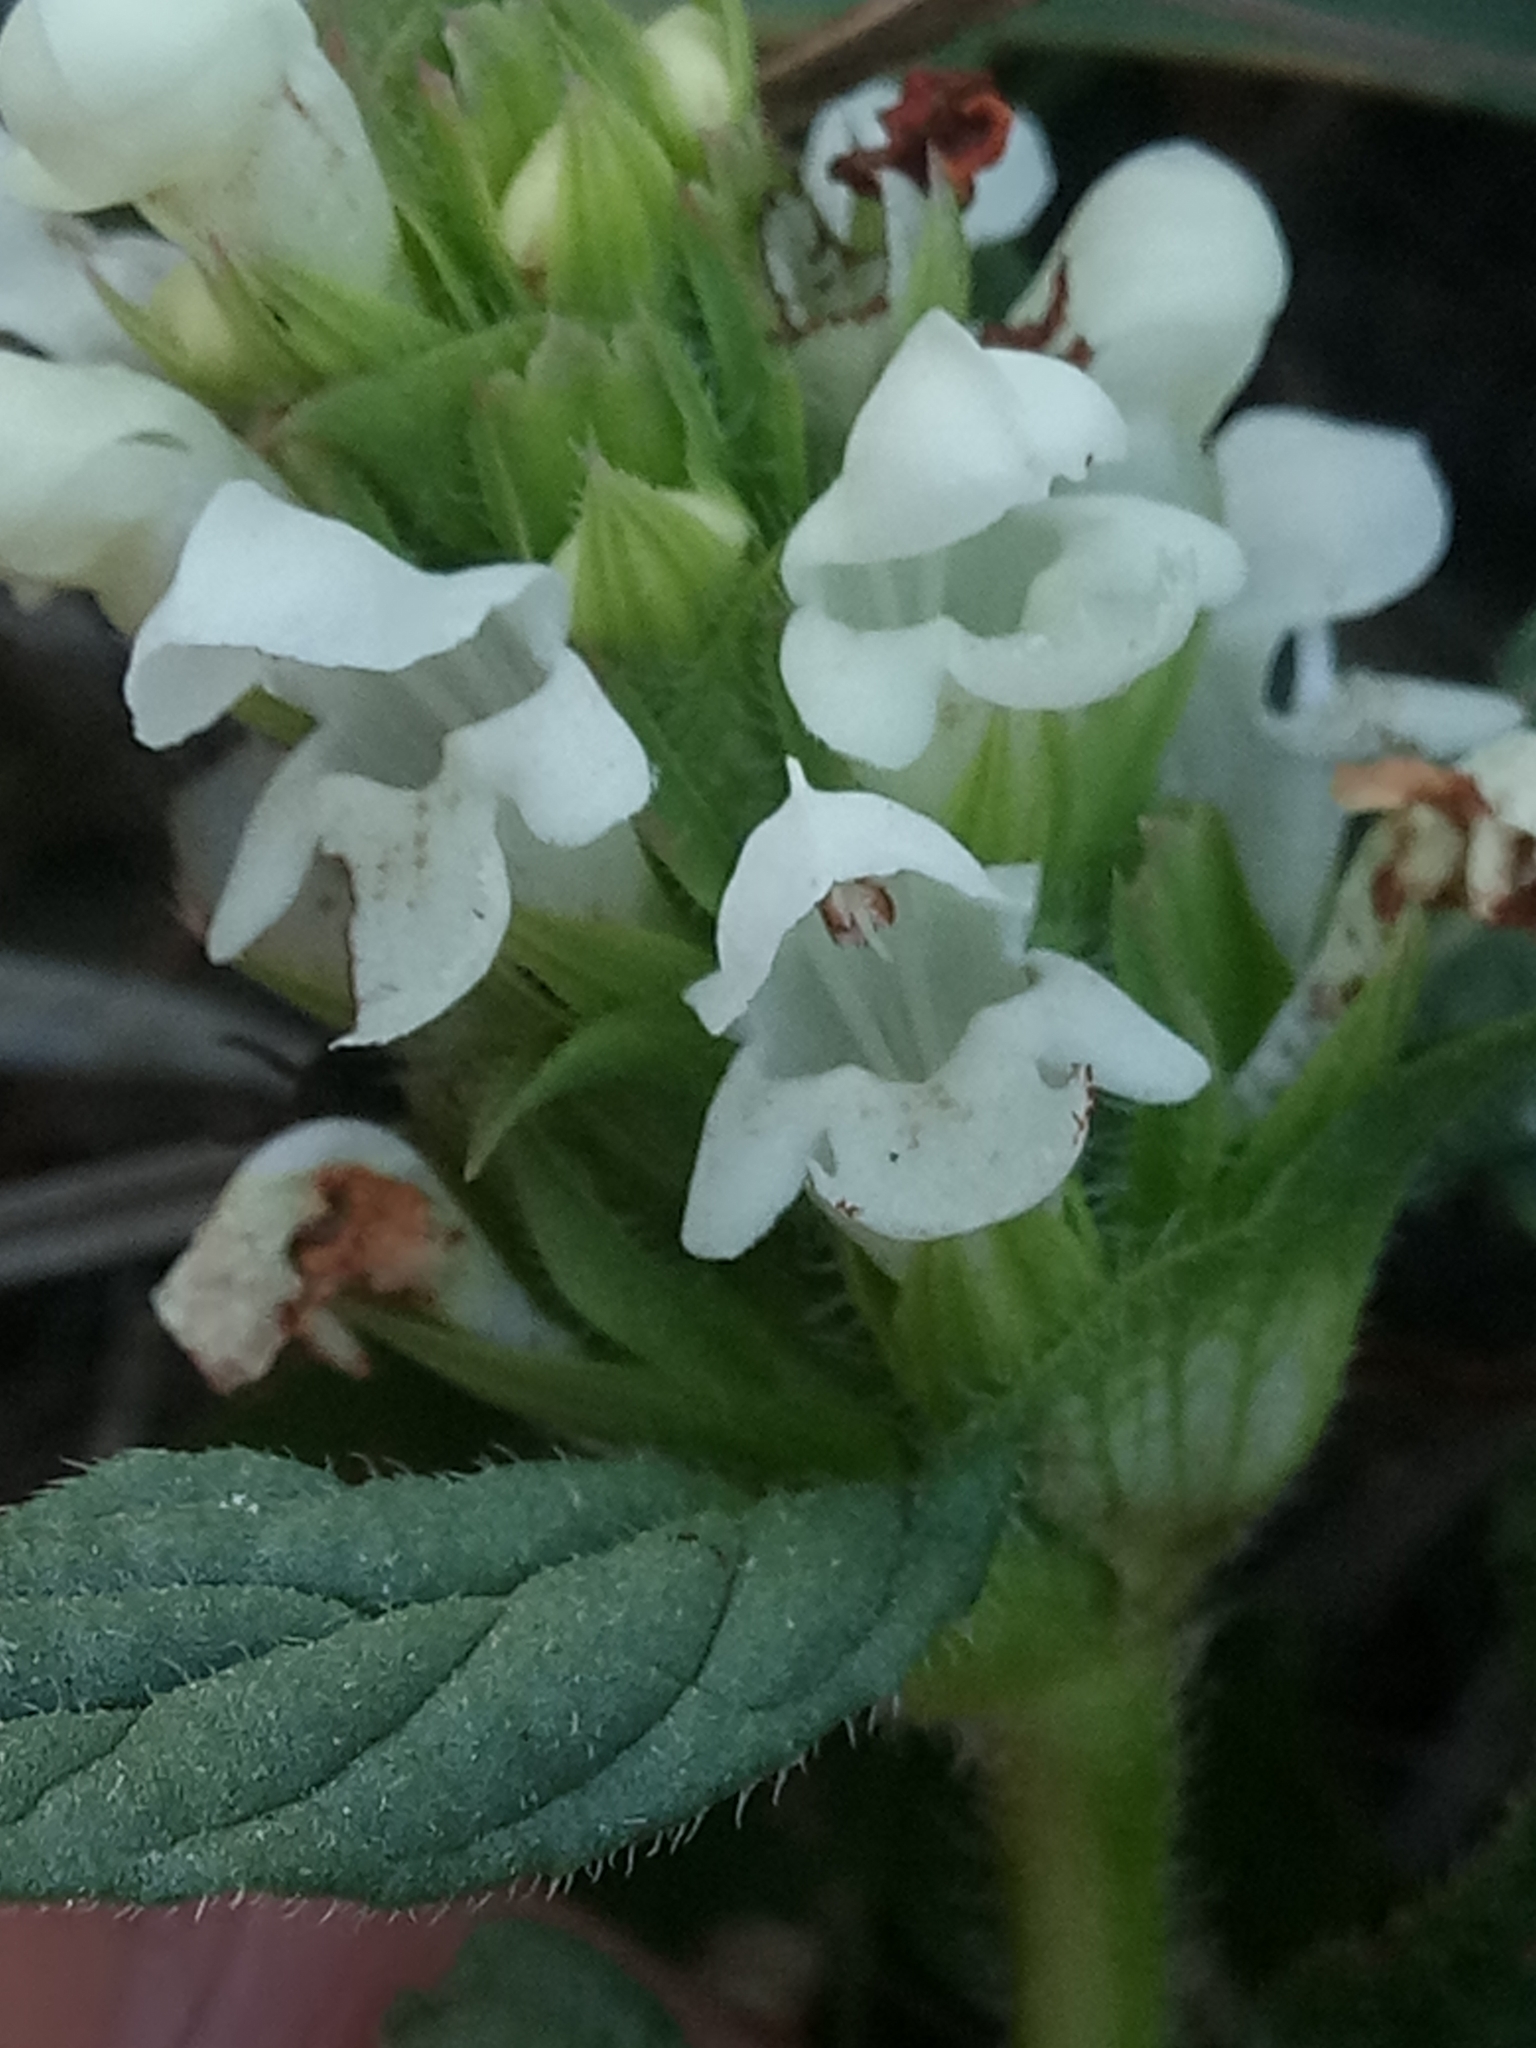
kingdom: Plantae
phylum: Tracheophyta
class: Magnoliopsida
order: Lamiales
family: Lamiaceae
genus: Prunella
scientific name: Prunella laciniata
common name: Cut-leaved selfheal
